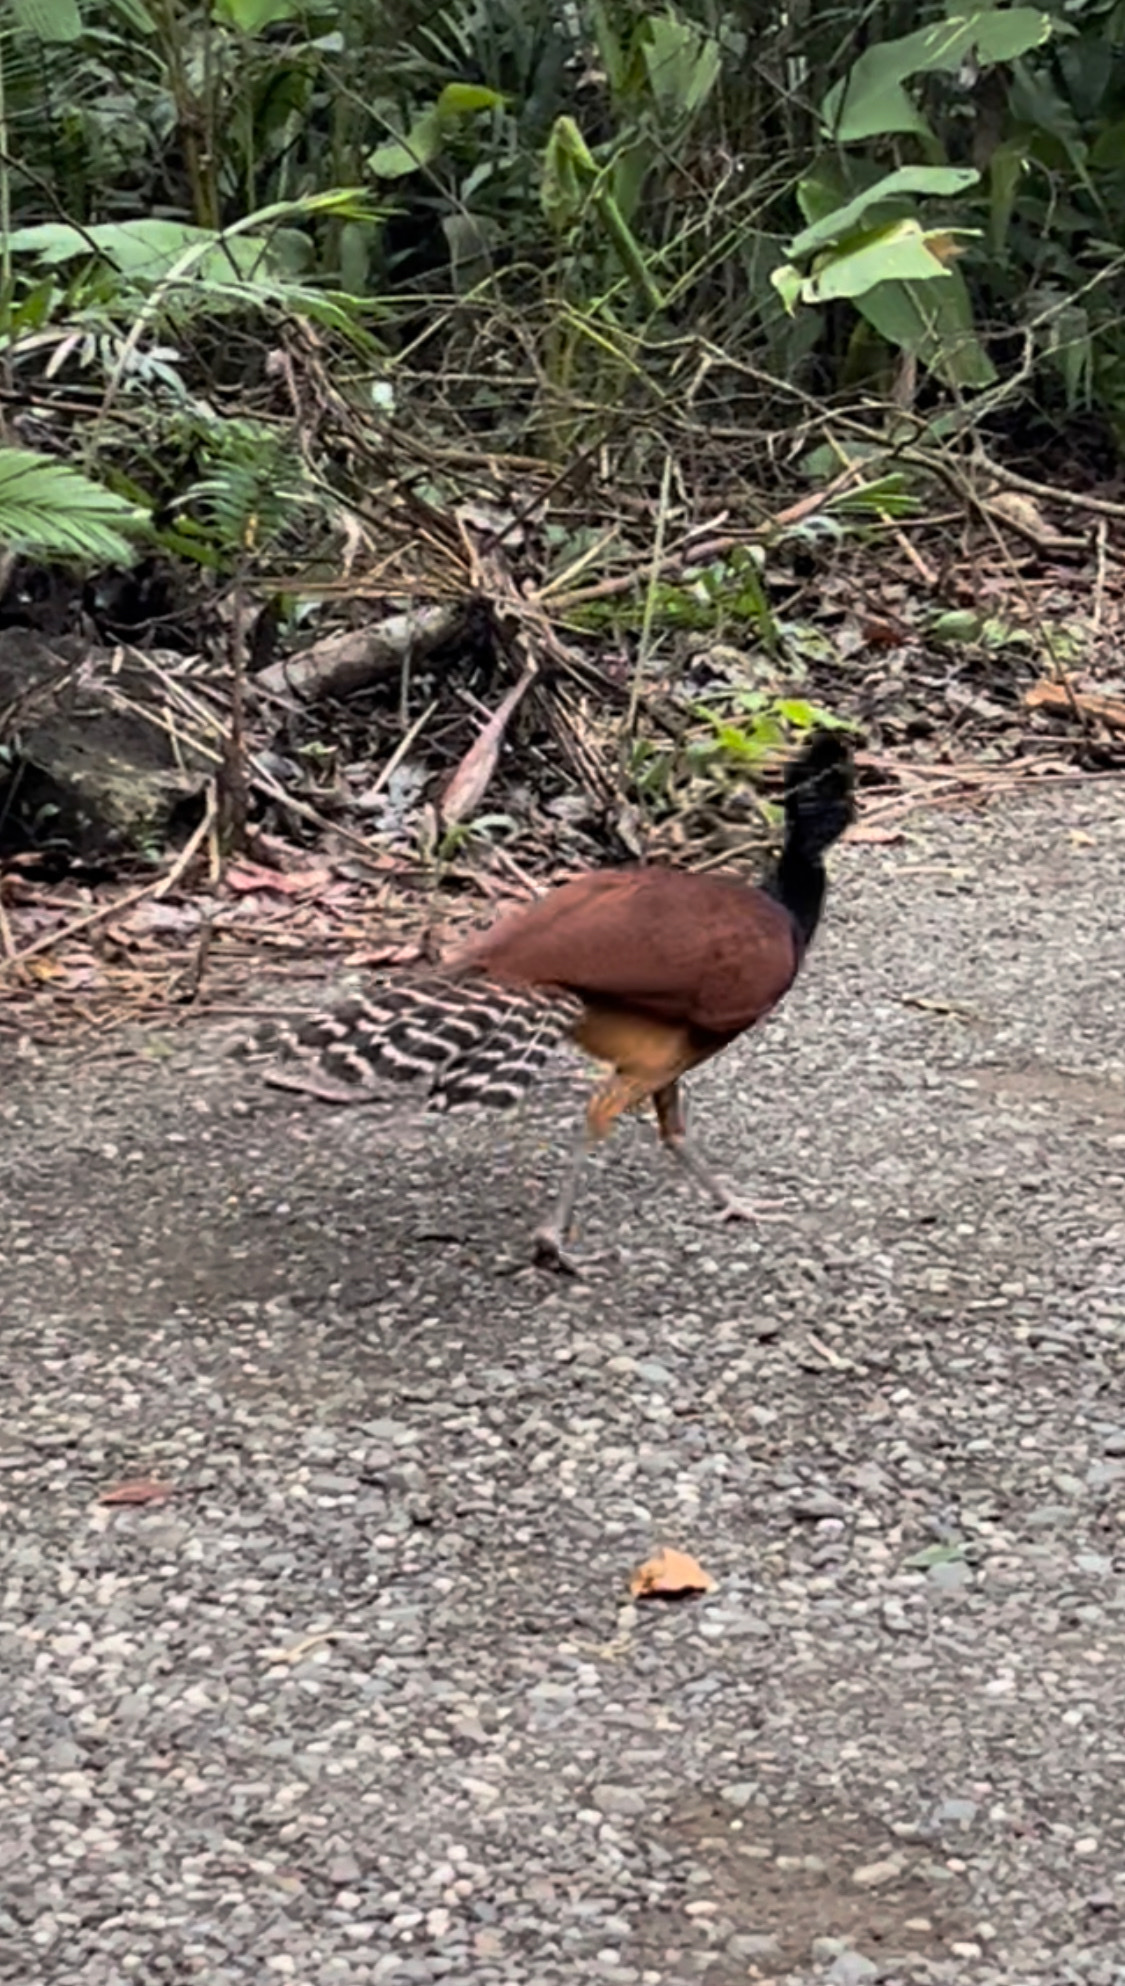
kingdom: Animalia
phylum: Chordata
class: Aves
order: Galliformes
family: Cracidae
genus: Crax
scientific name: Crax rubra
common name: Great curassow
